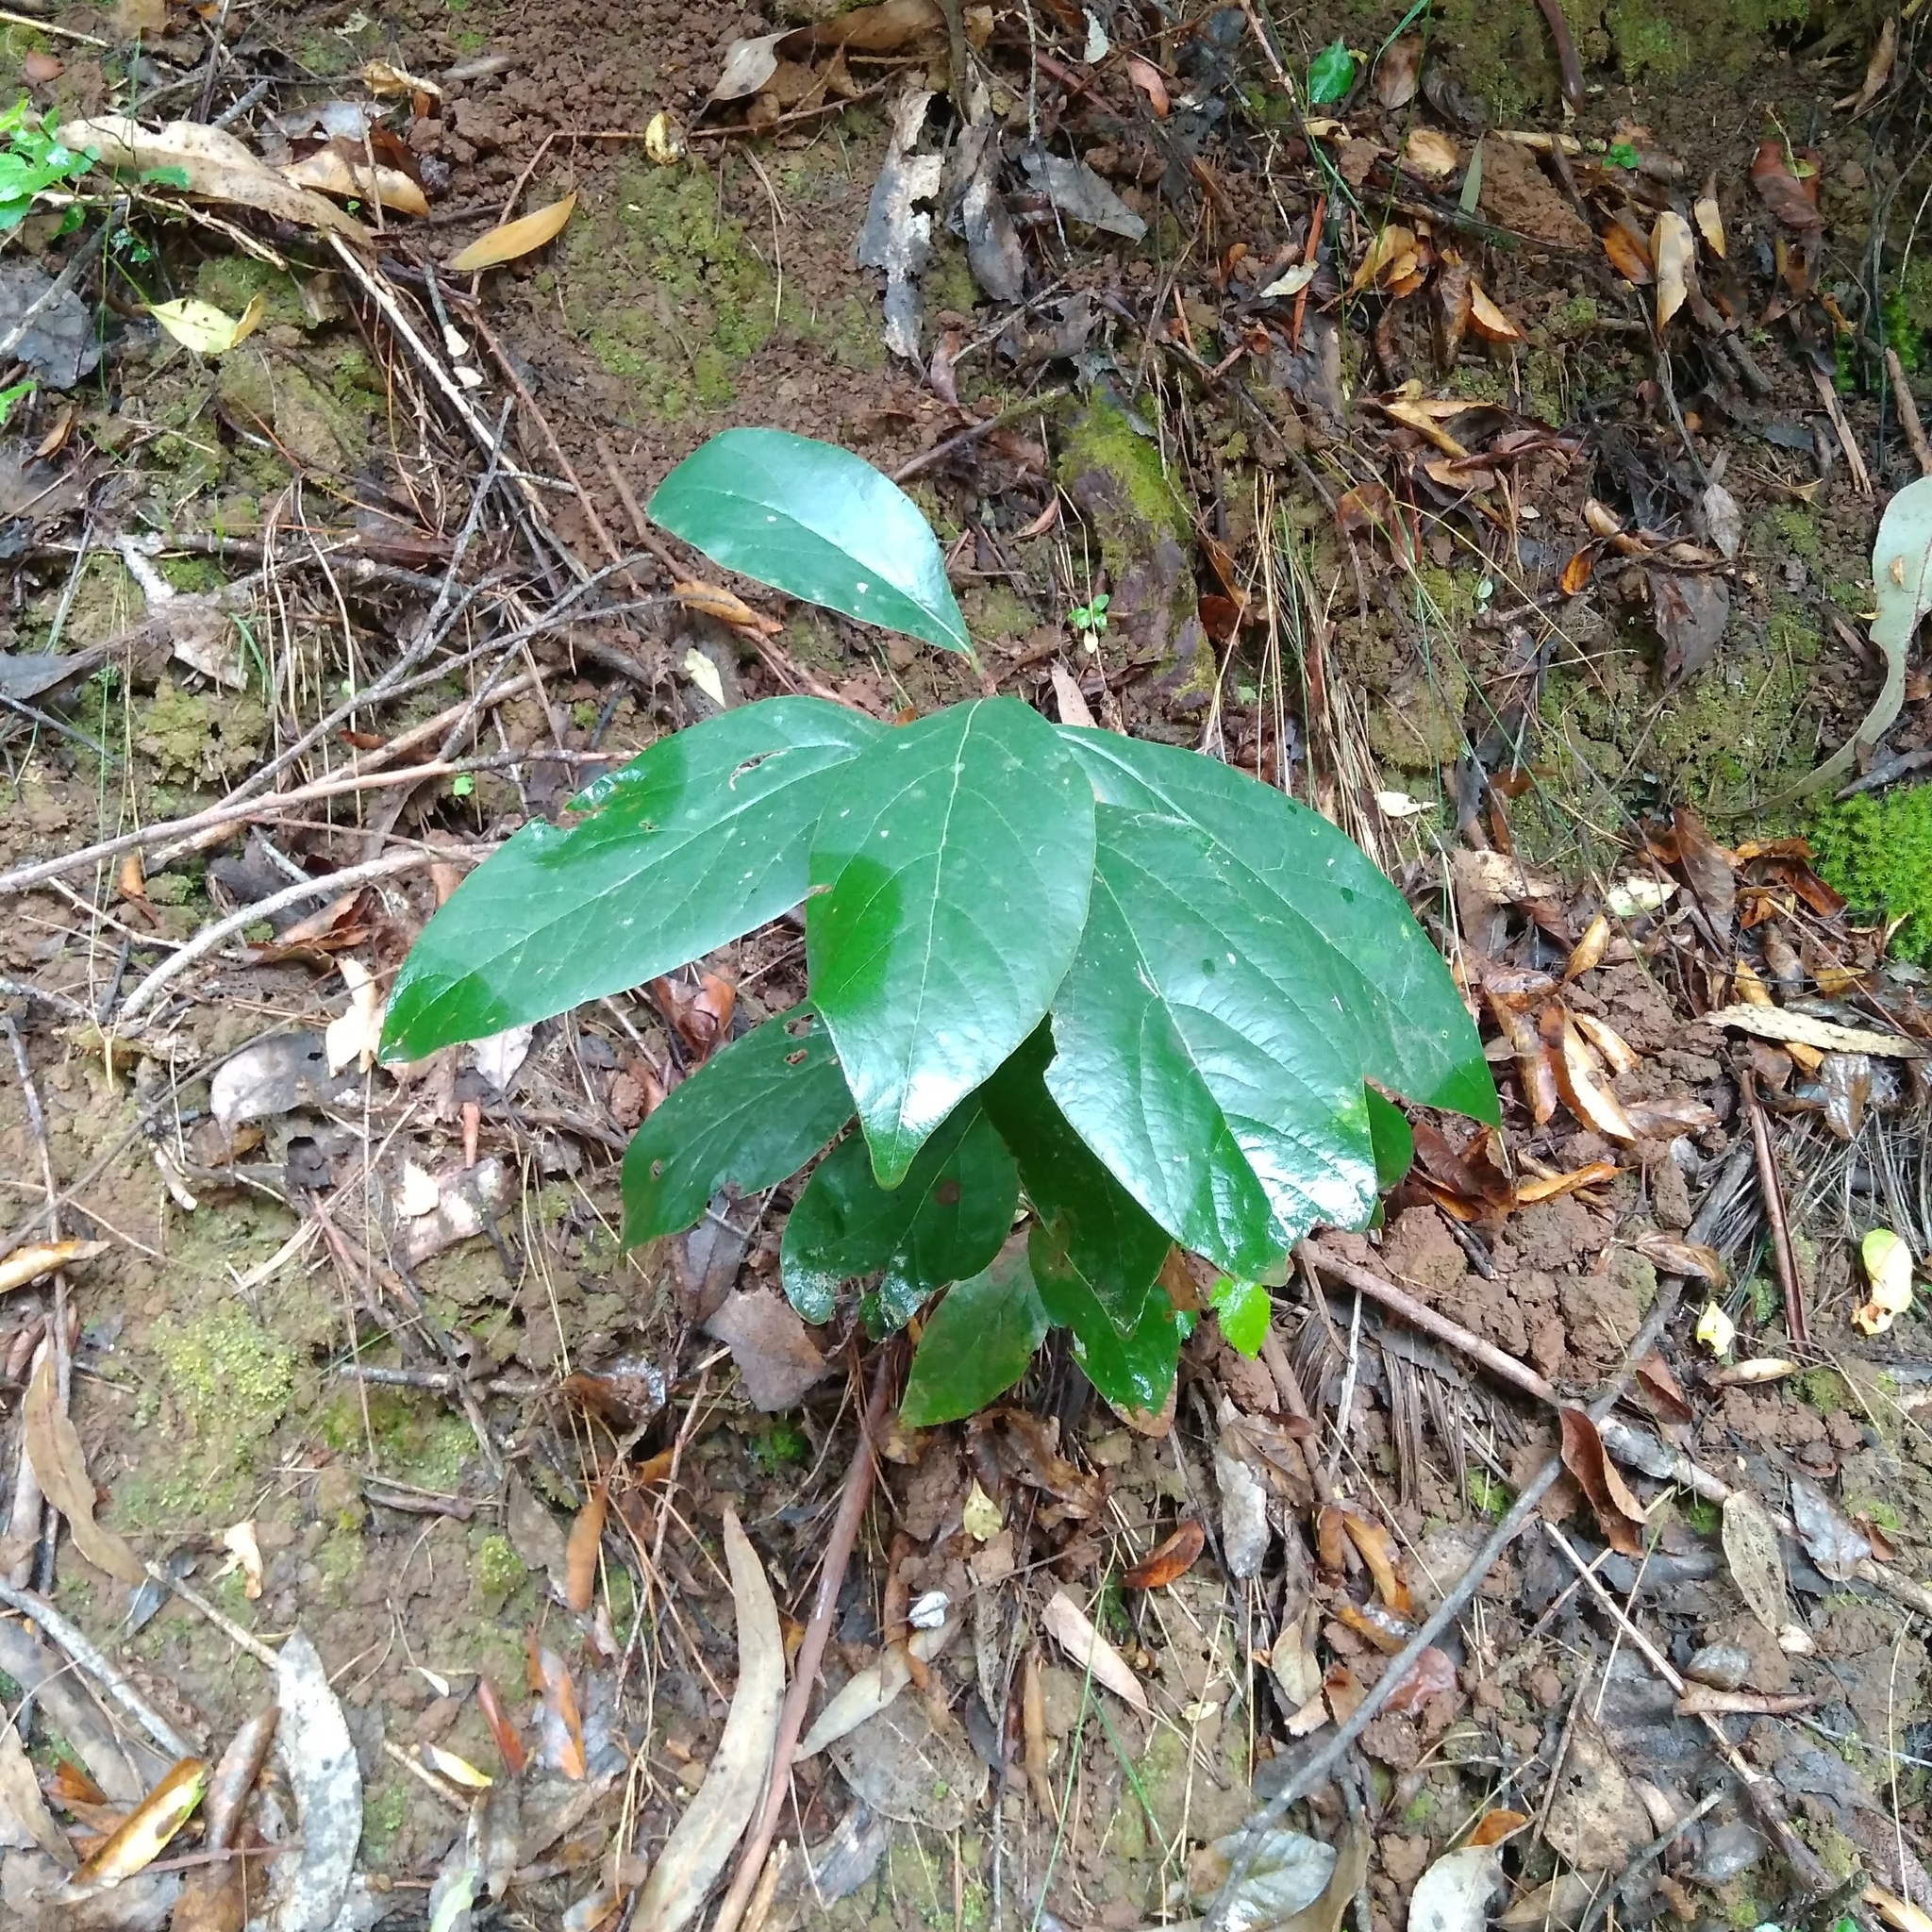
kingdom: Plantae
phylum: Tracheophyta
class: Magnoliopsida
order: Laurales
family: Lauraceae
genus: Persea
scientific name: Persea lingue
